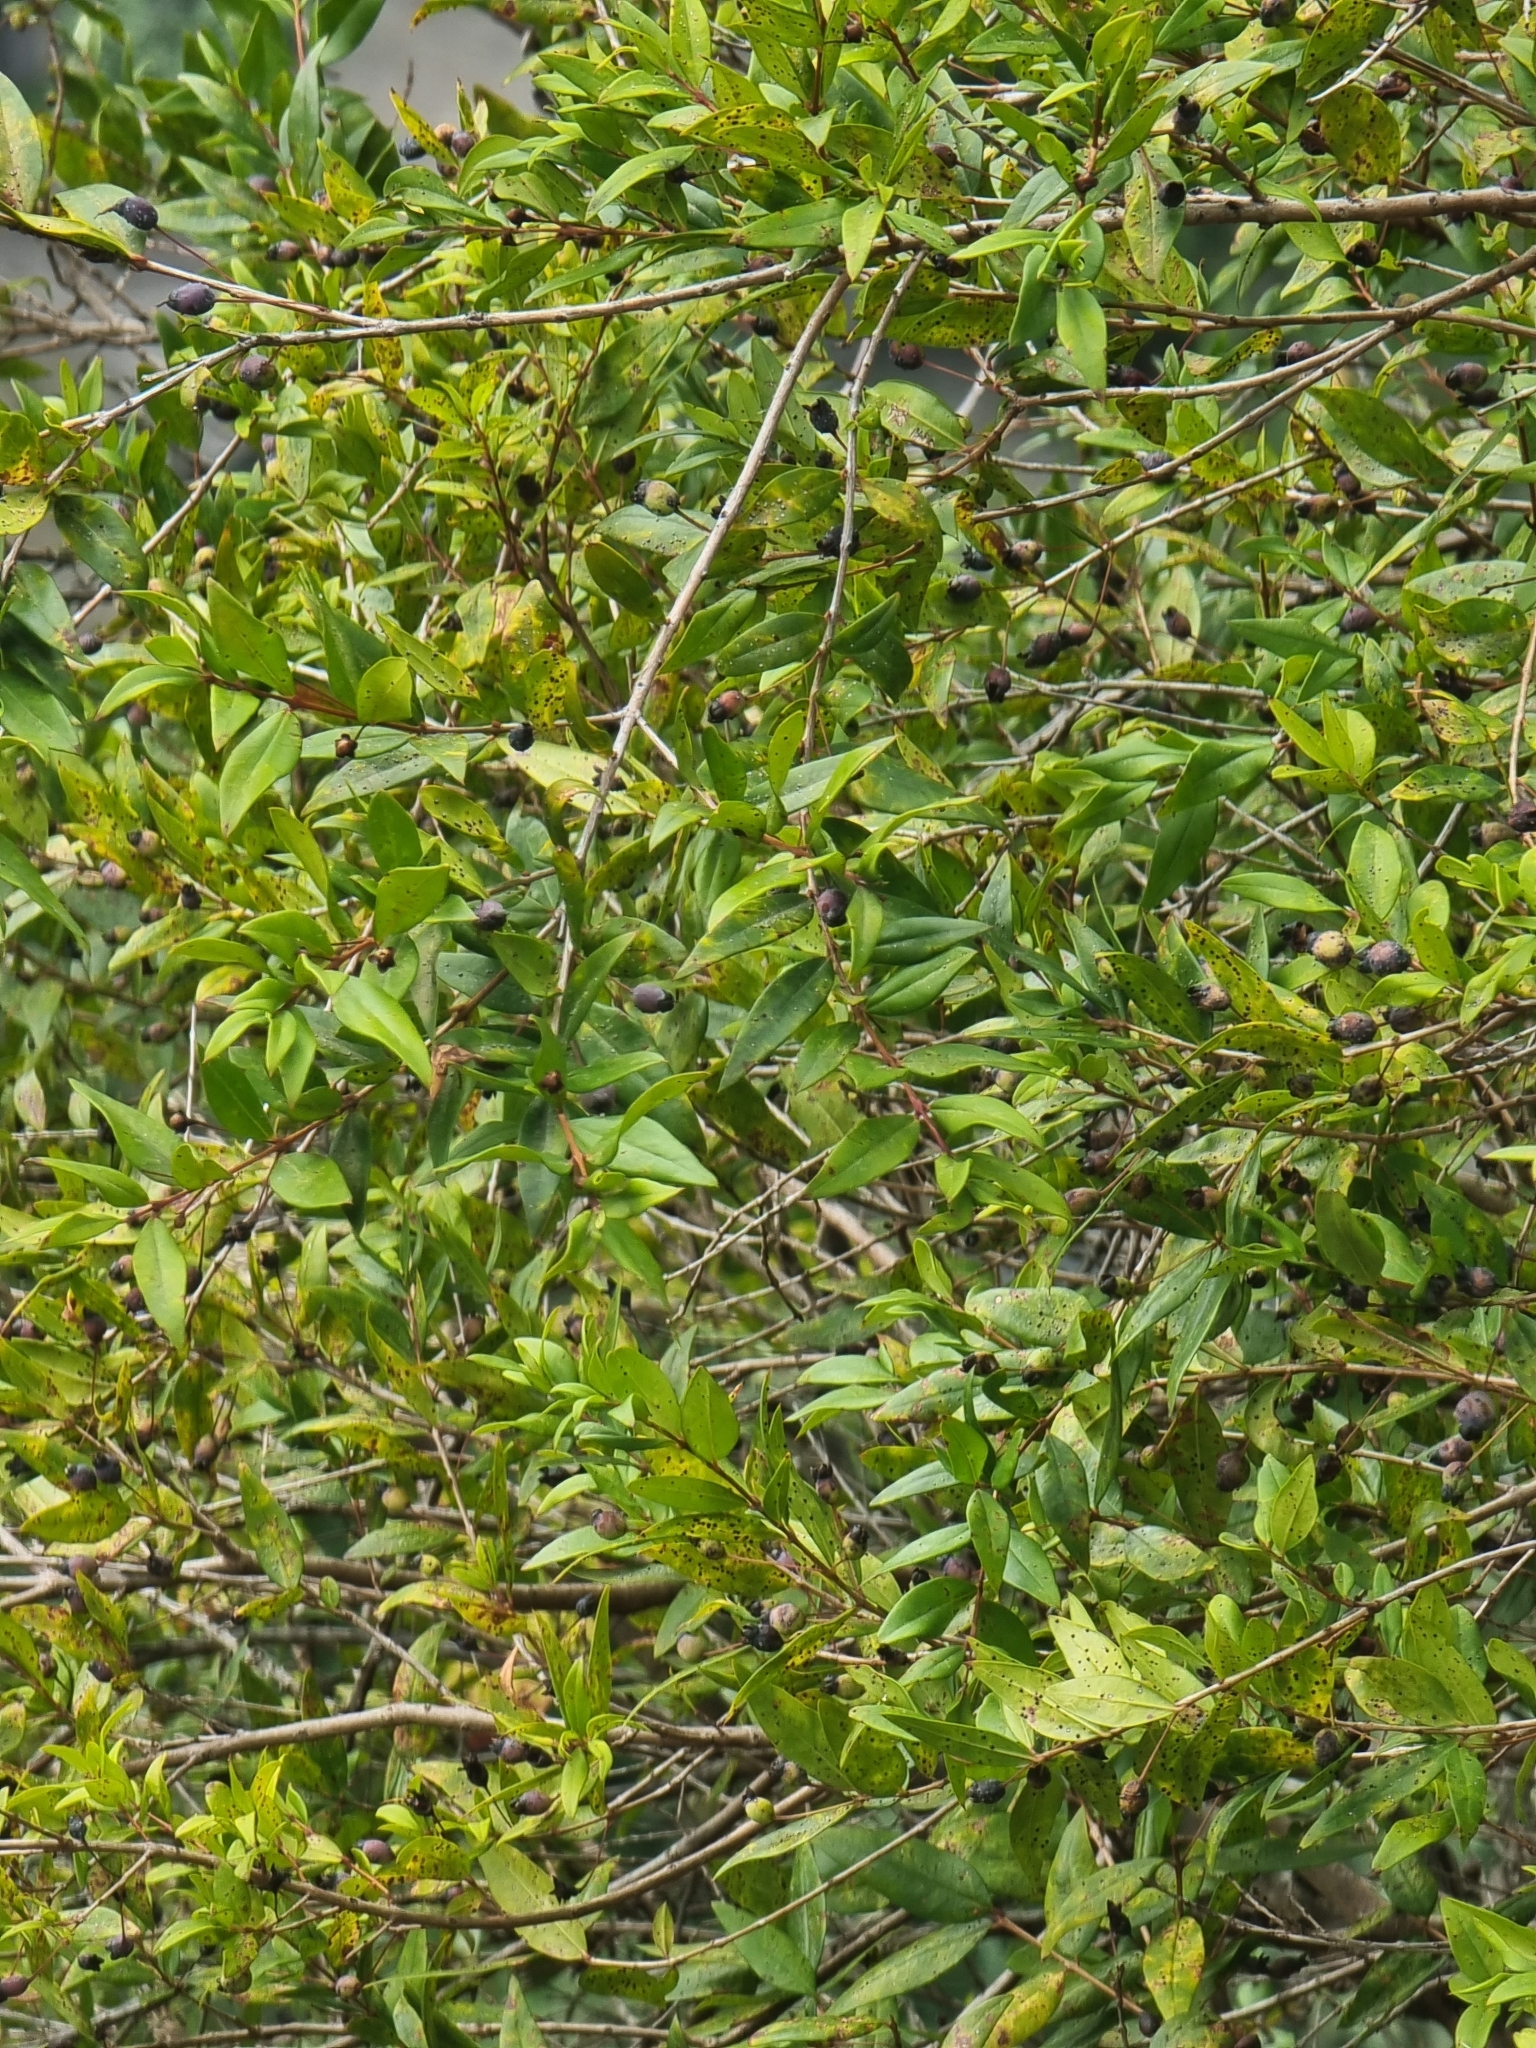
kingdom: Plantae
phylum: Tracheophyta
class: Magnoliopsida
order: Myrtales
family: Myrtaceae
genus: Myrtus
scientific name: Myrtus communis
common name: Myrtle
